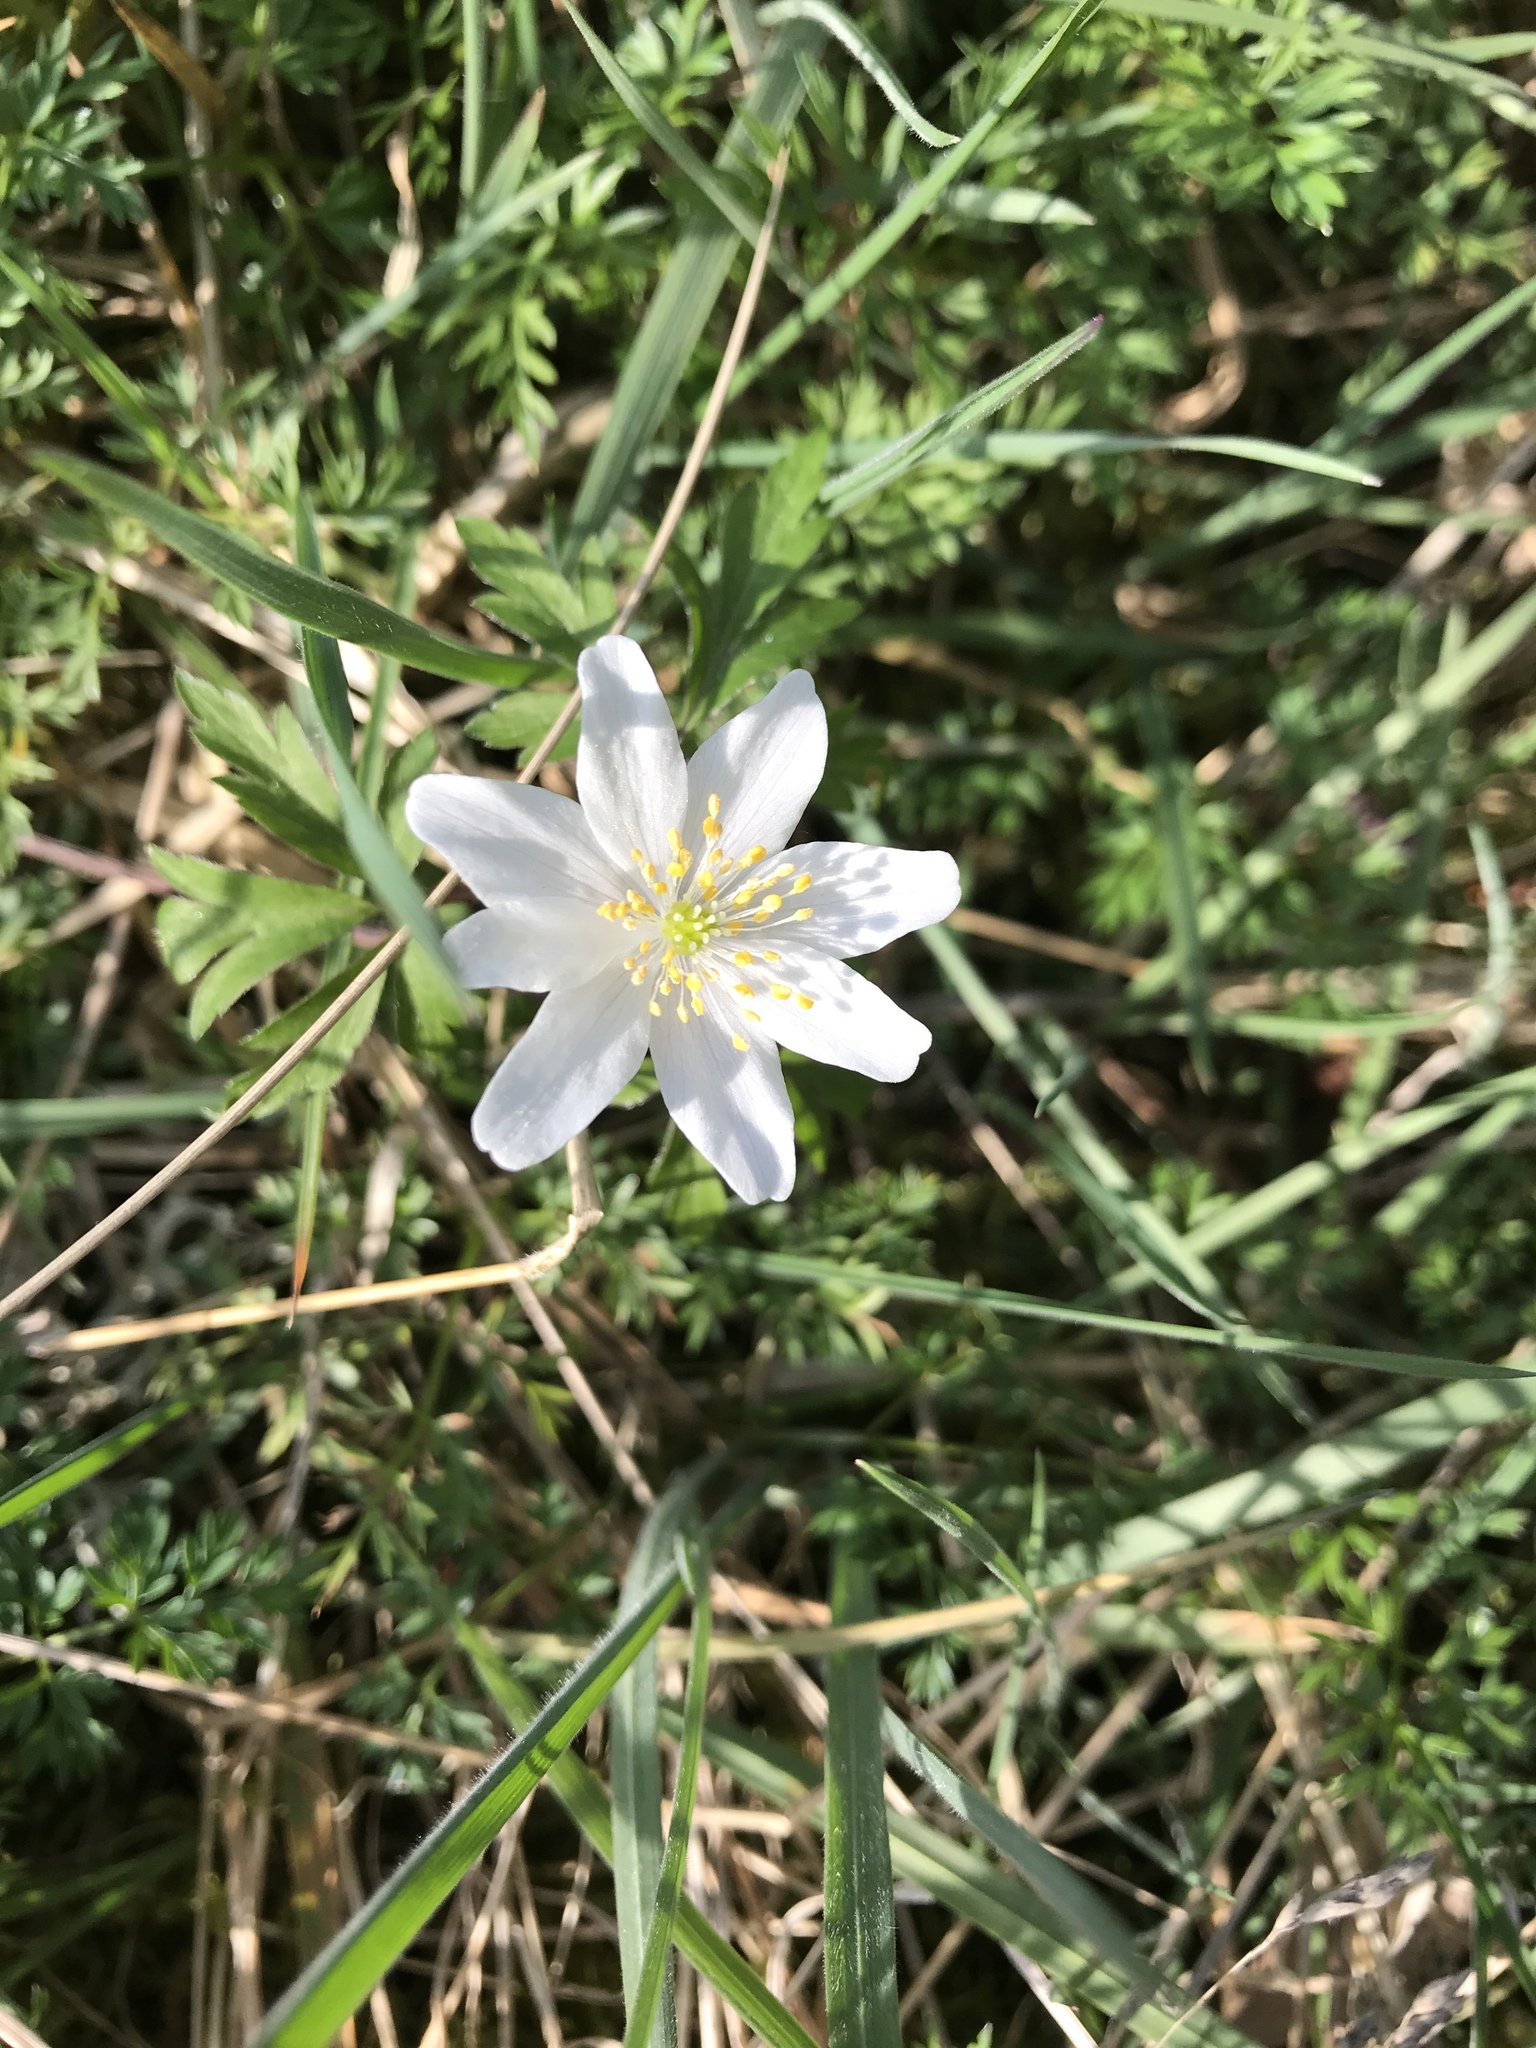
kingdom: Plantae
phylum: Tracheophyta
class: Magnoliopsida
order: Ranunculales
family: Ranunculaceae
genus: Anemone
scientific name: Anemone nemorosa
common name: Wood anemone
